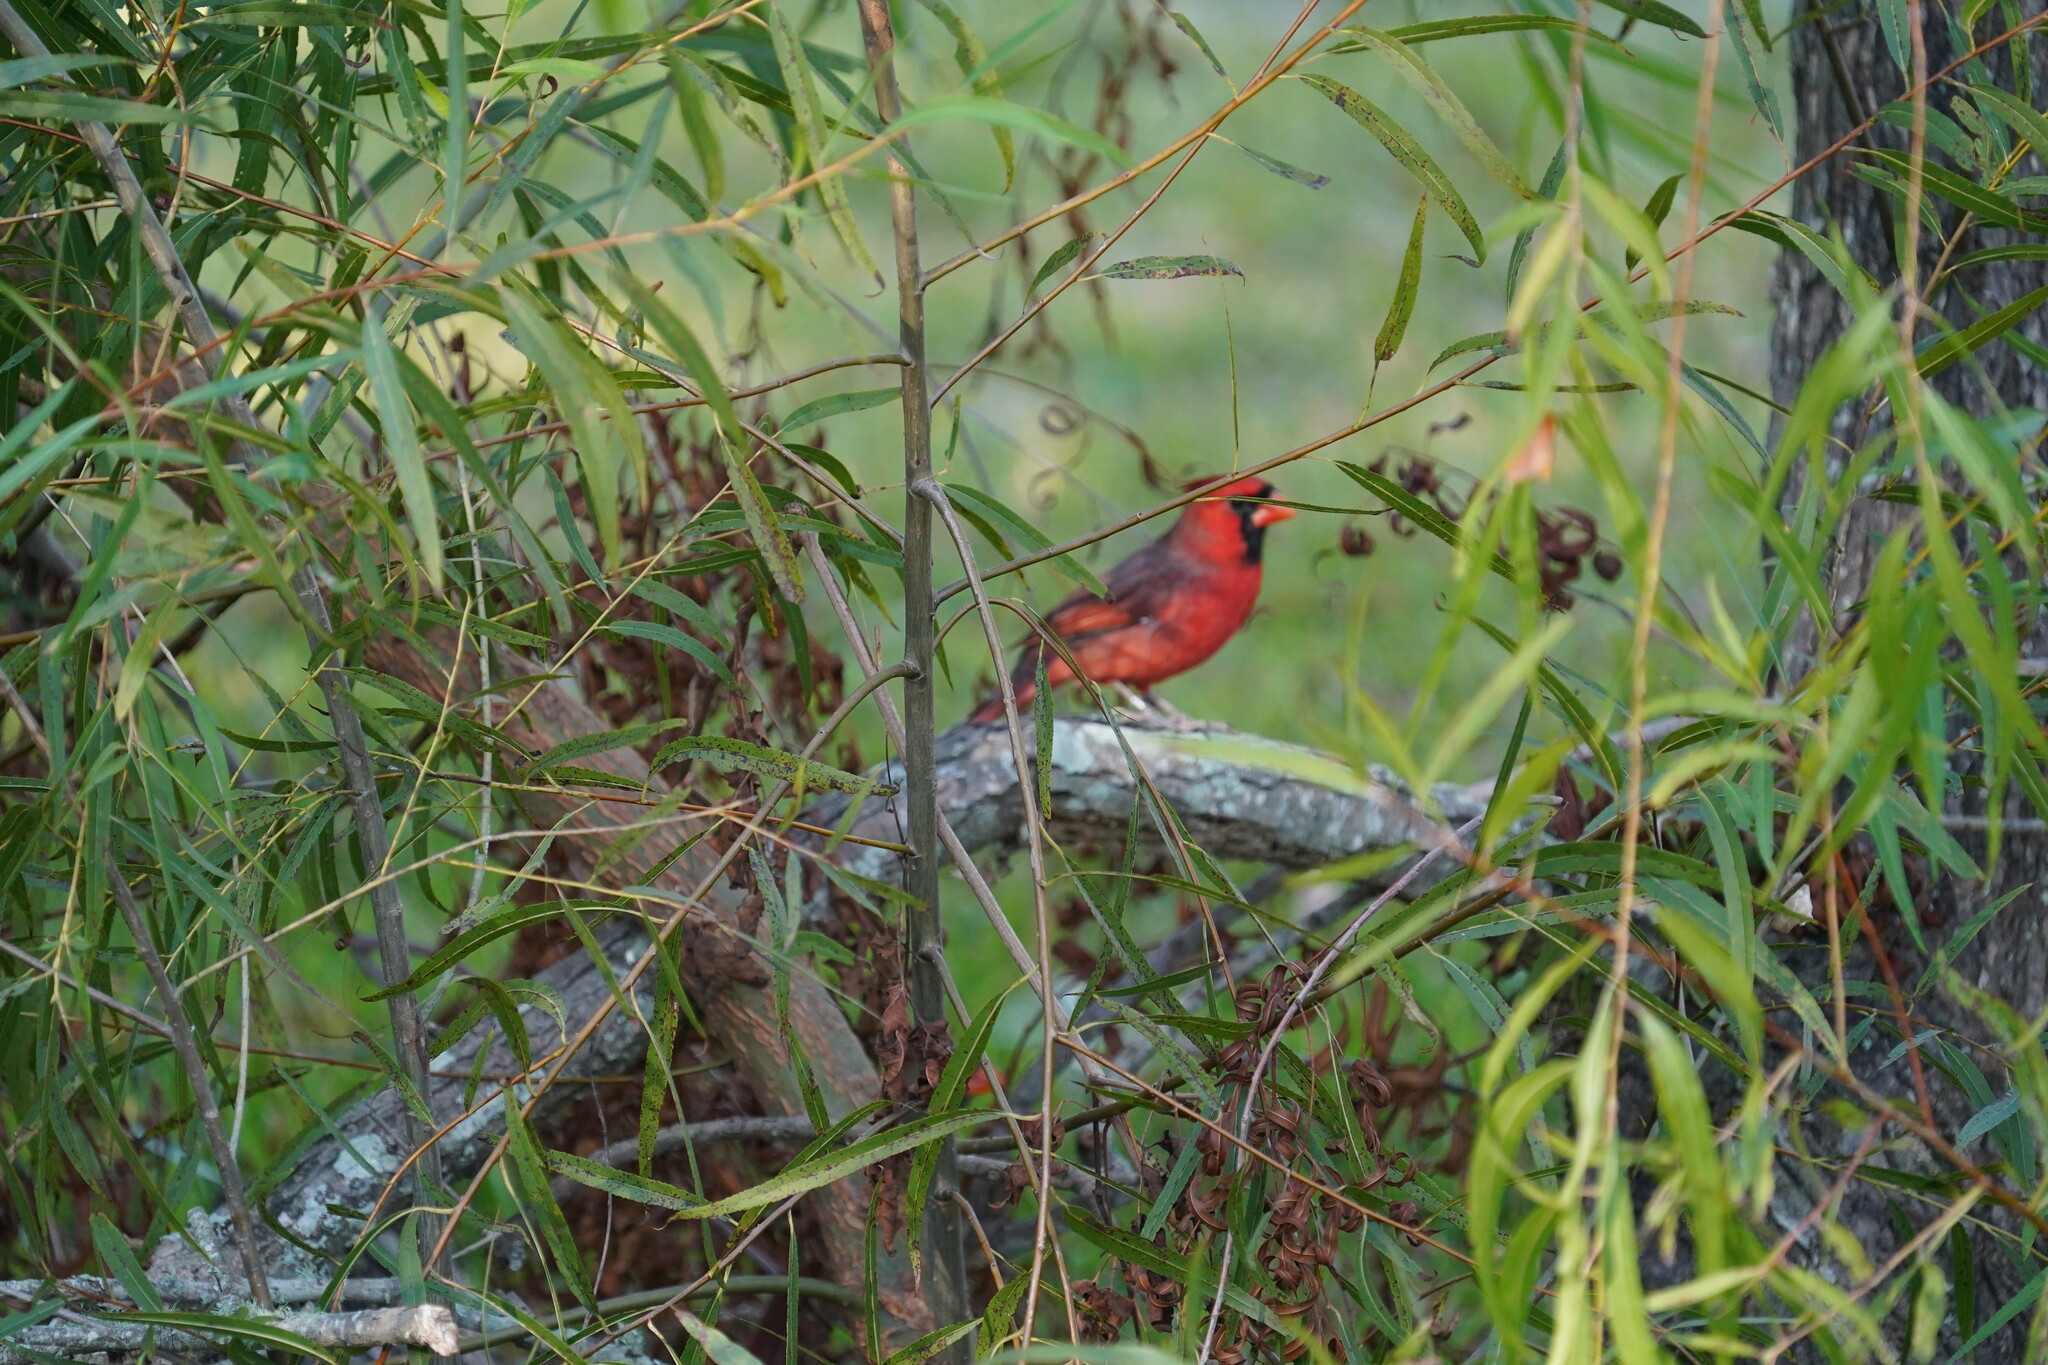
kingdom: Animalia
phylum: Chordata
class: Aves
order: Passeriformes
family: Cardinalidae
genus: Cardinalis
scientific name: Cardinalis cardinalis
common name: Northern cardinal
